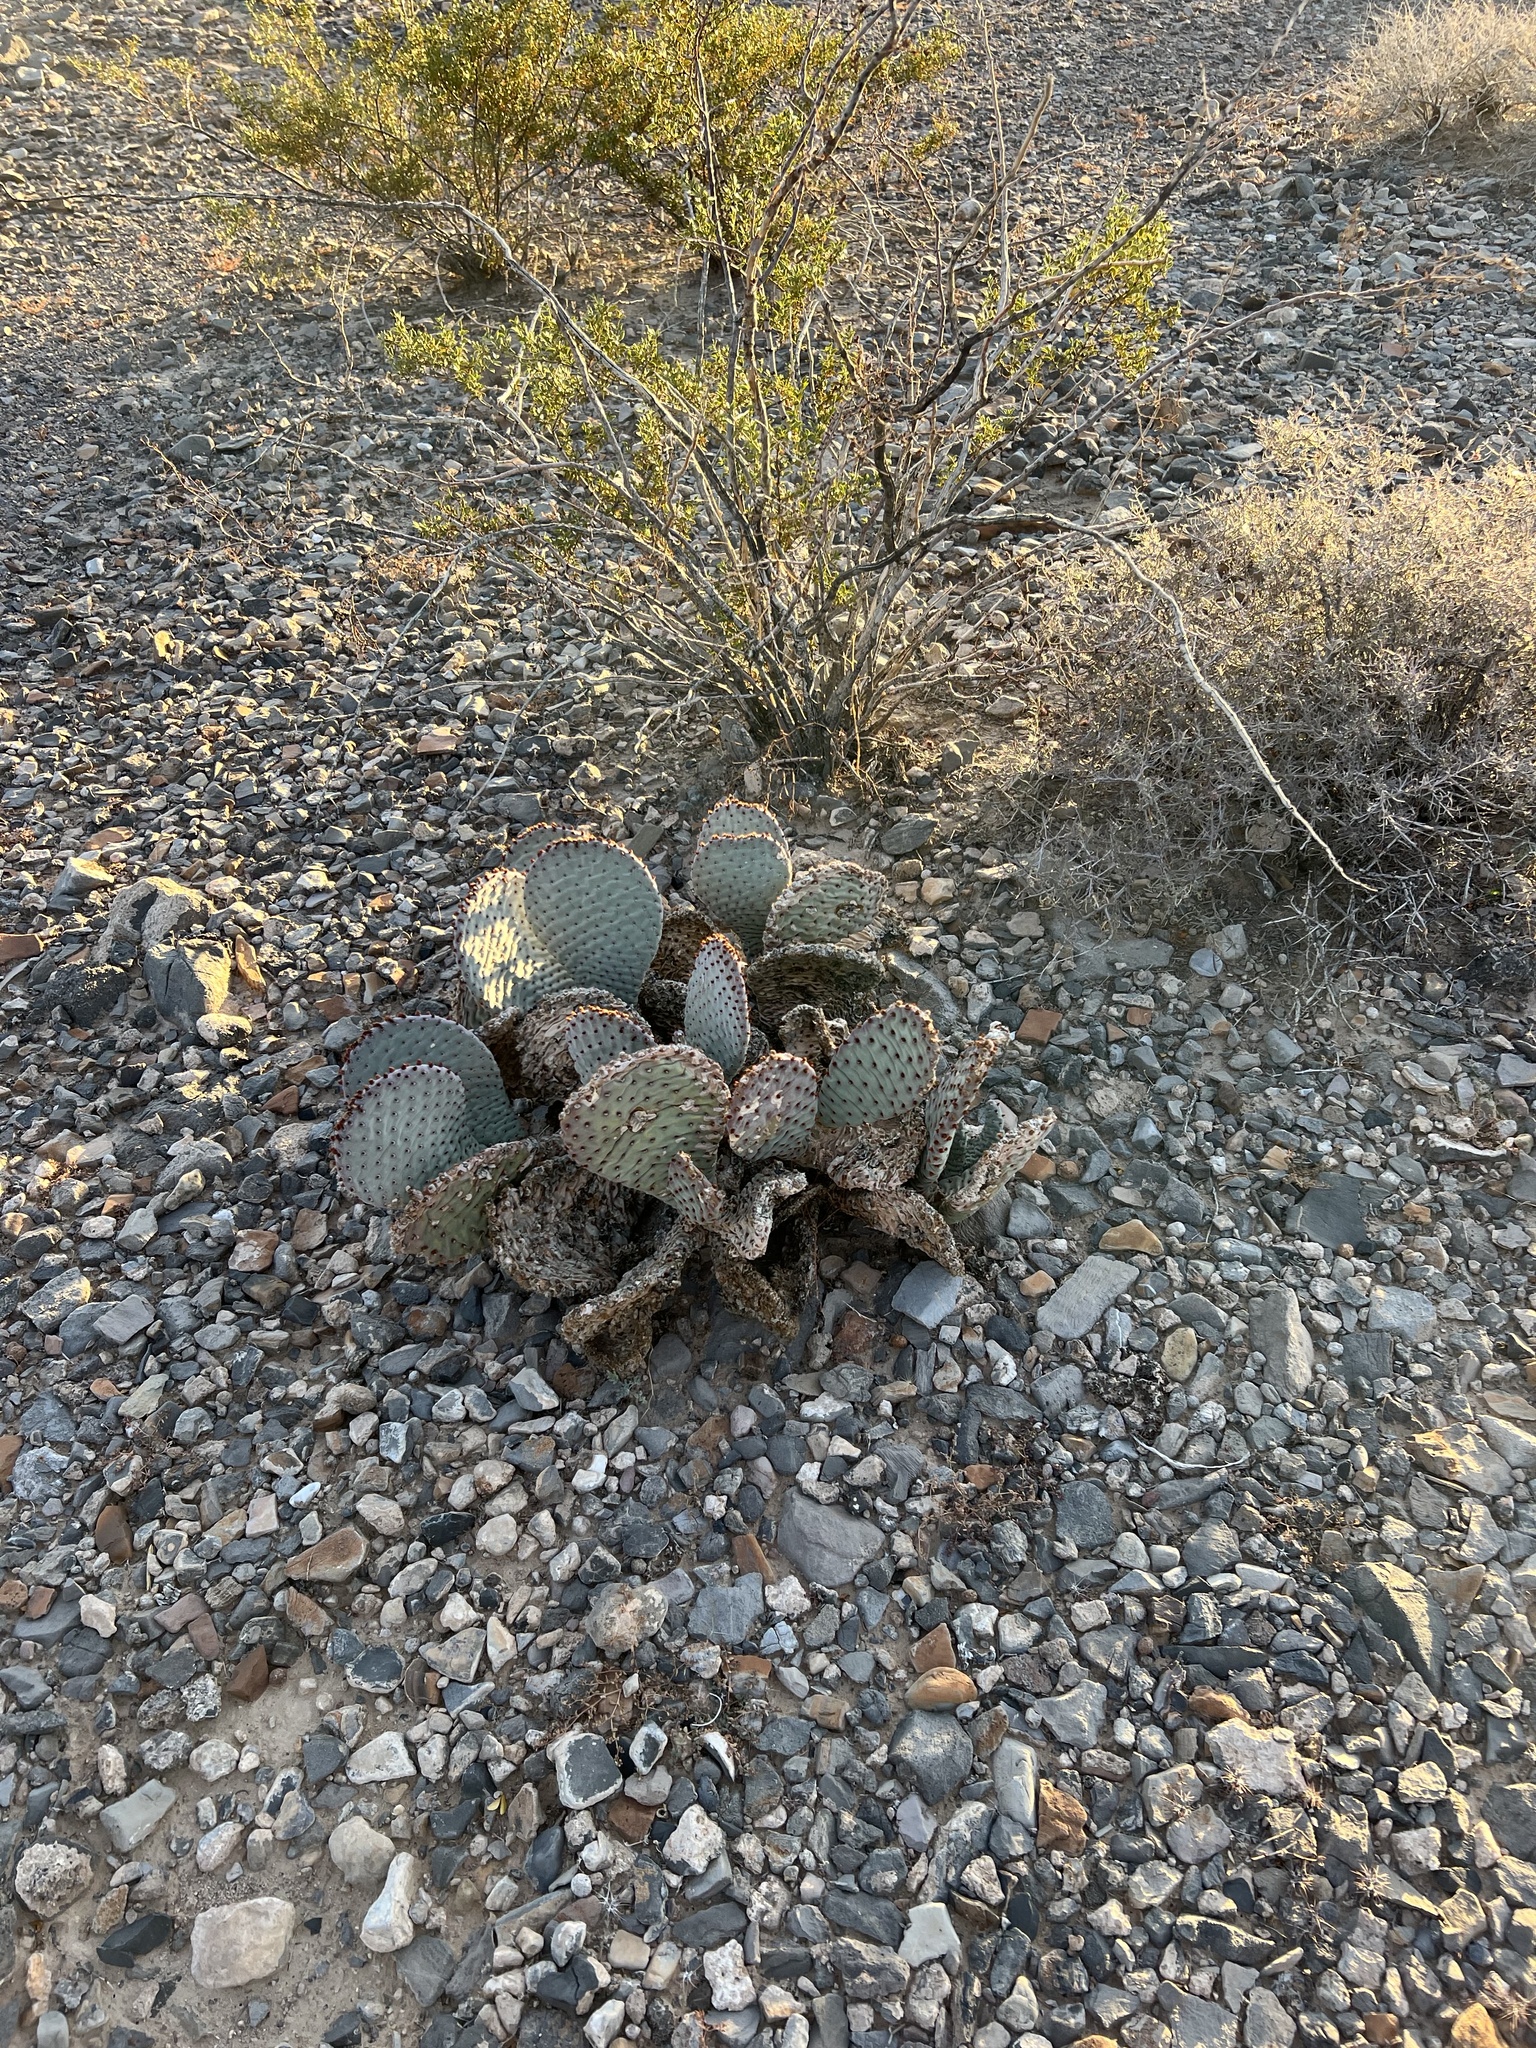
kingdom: Plantae
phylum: Tracheophyta
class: Magnoliopsida
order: Caryophyllales
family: Cactaceae
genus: Opuntia
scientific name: Opuntia basilaris
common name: Beavertail prickly-pear
